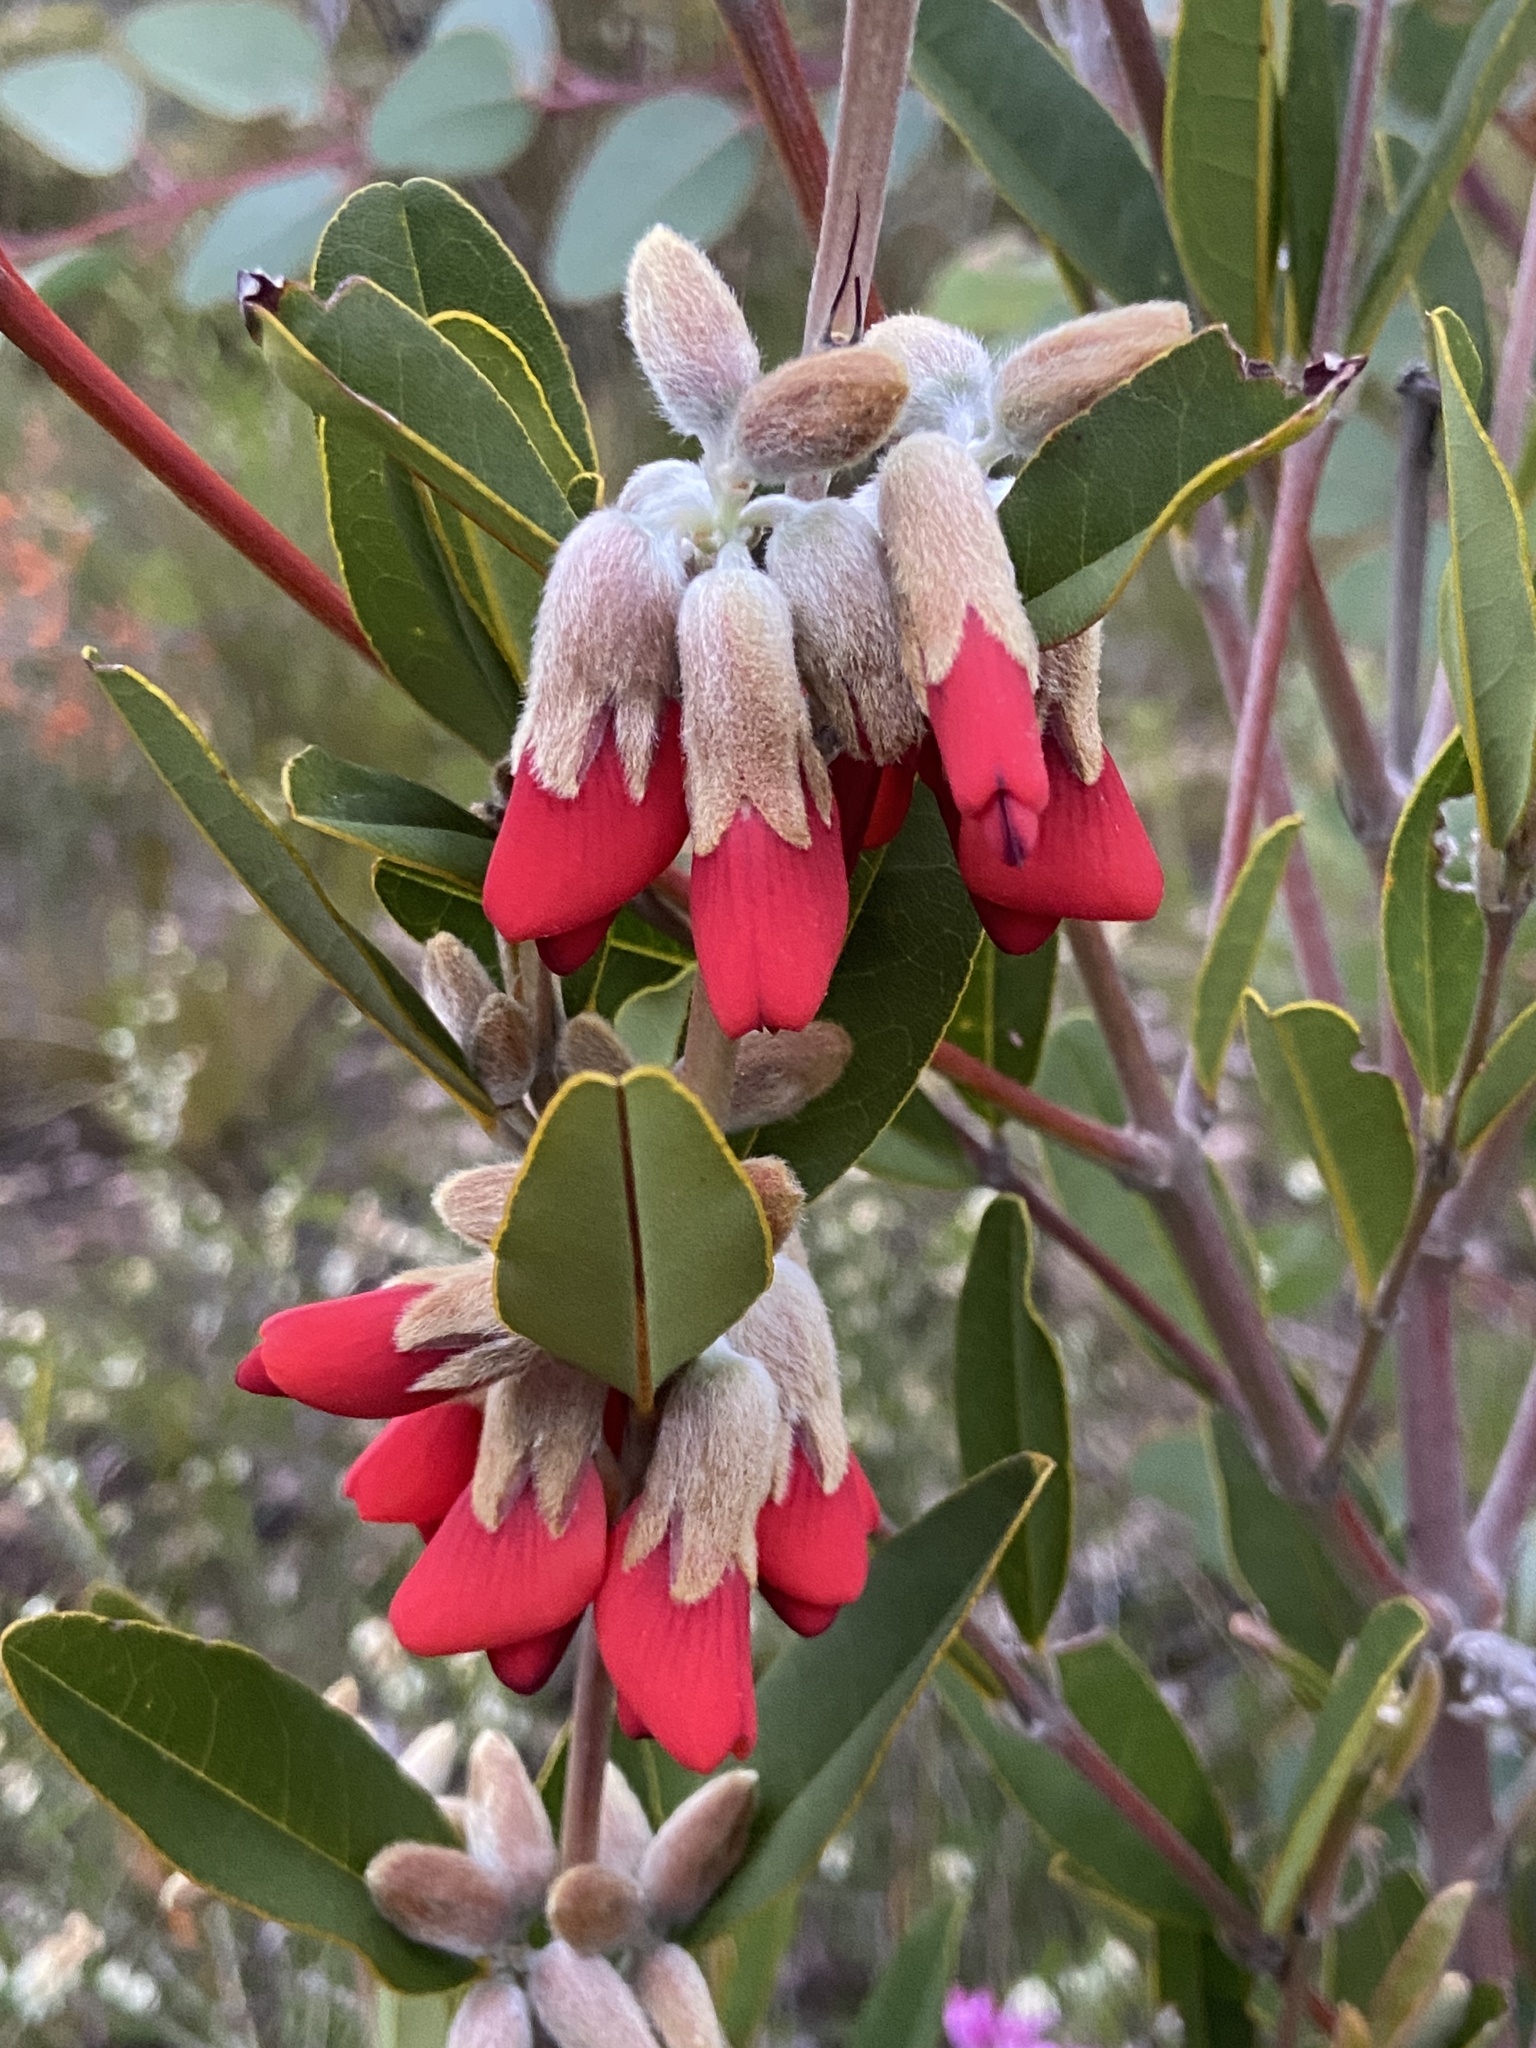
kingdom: Plantae
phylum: Tracheophyta
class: Magnoliopsida
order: Fabales
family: Fabaceae
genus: Gastrolobium
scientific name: Gastrolobium rubrum
